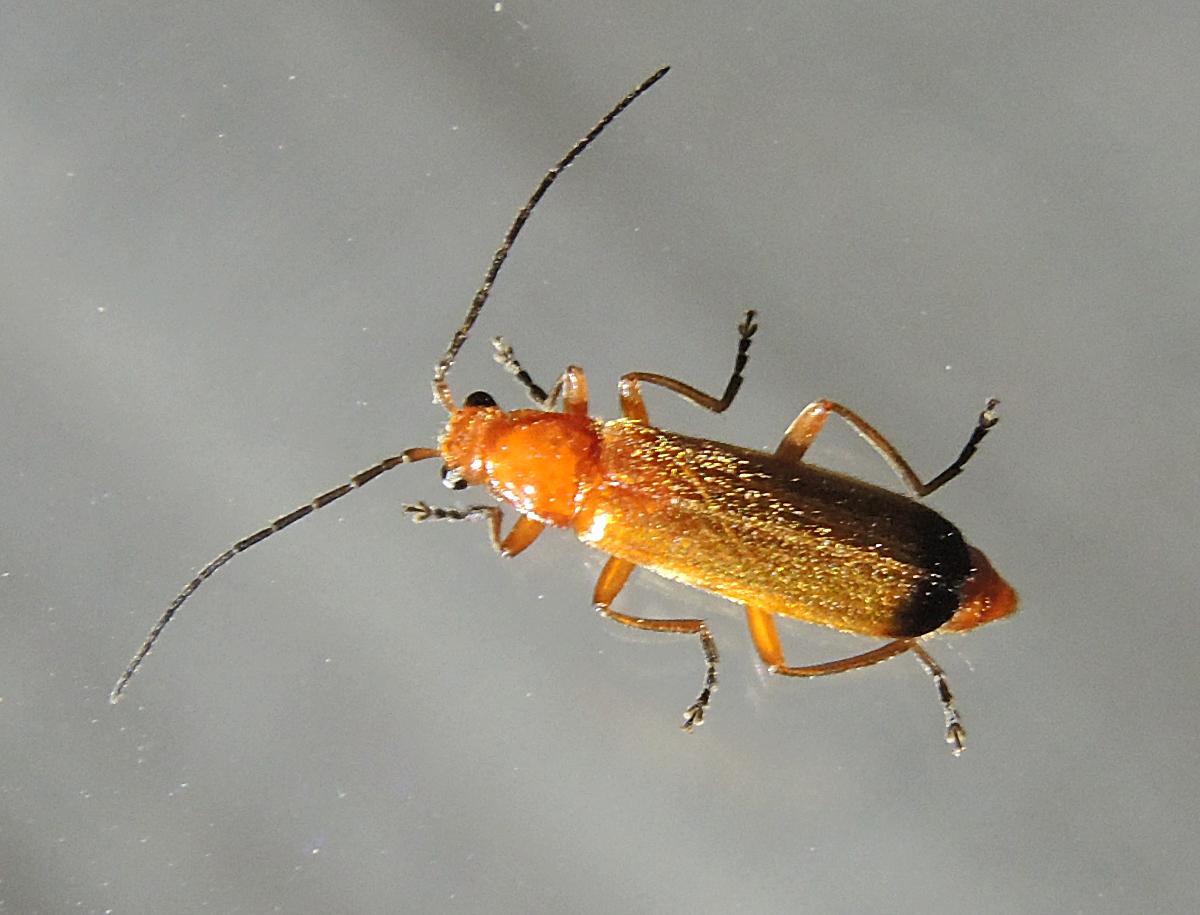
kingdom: Animalia
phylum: Arthropoda
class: Insecta
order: Coleoptera
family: Cantharidae
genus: Rhagonycha
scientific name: Rhagonycha fulva
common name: Common red soldier beetle
